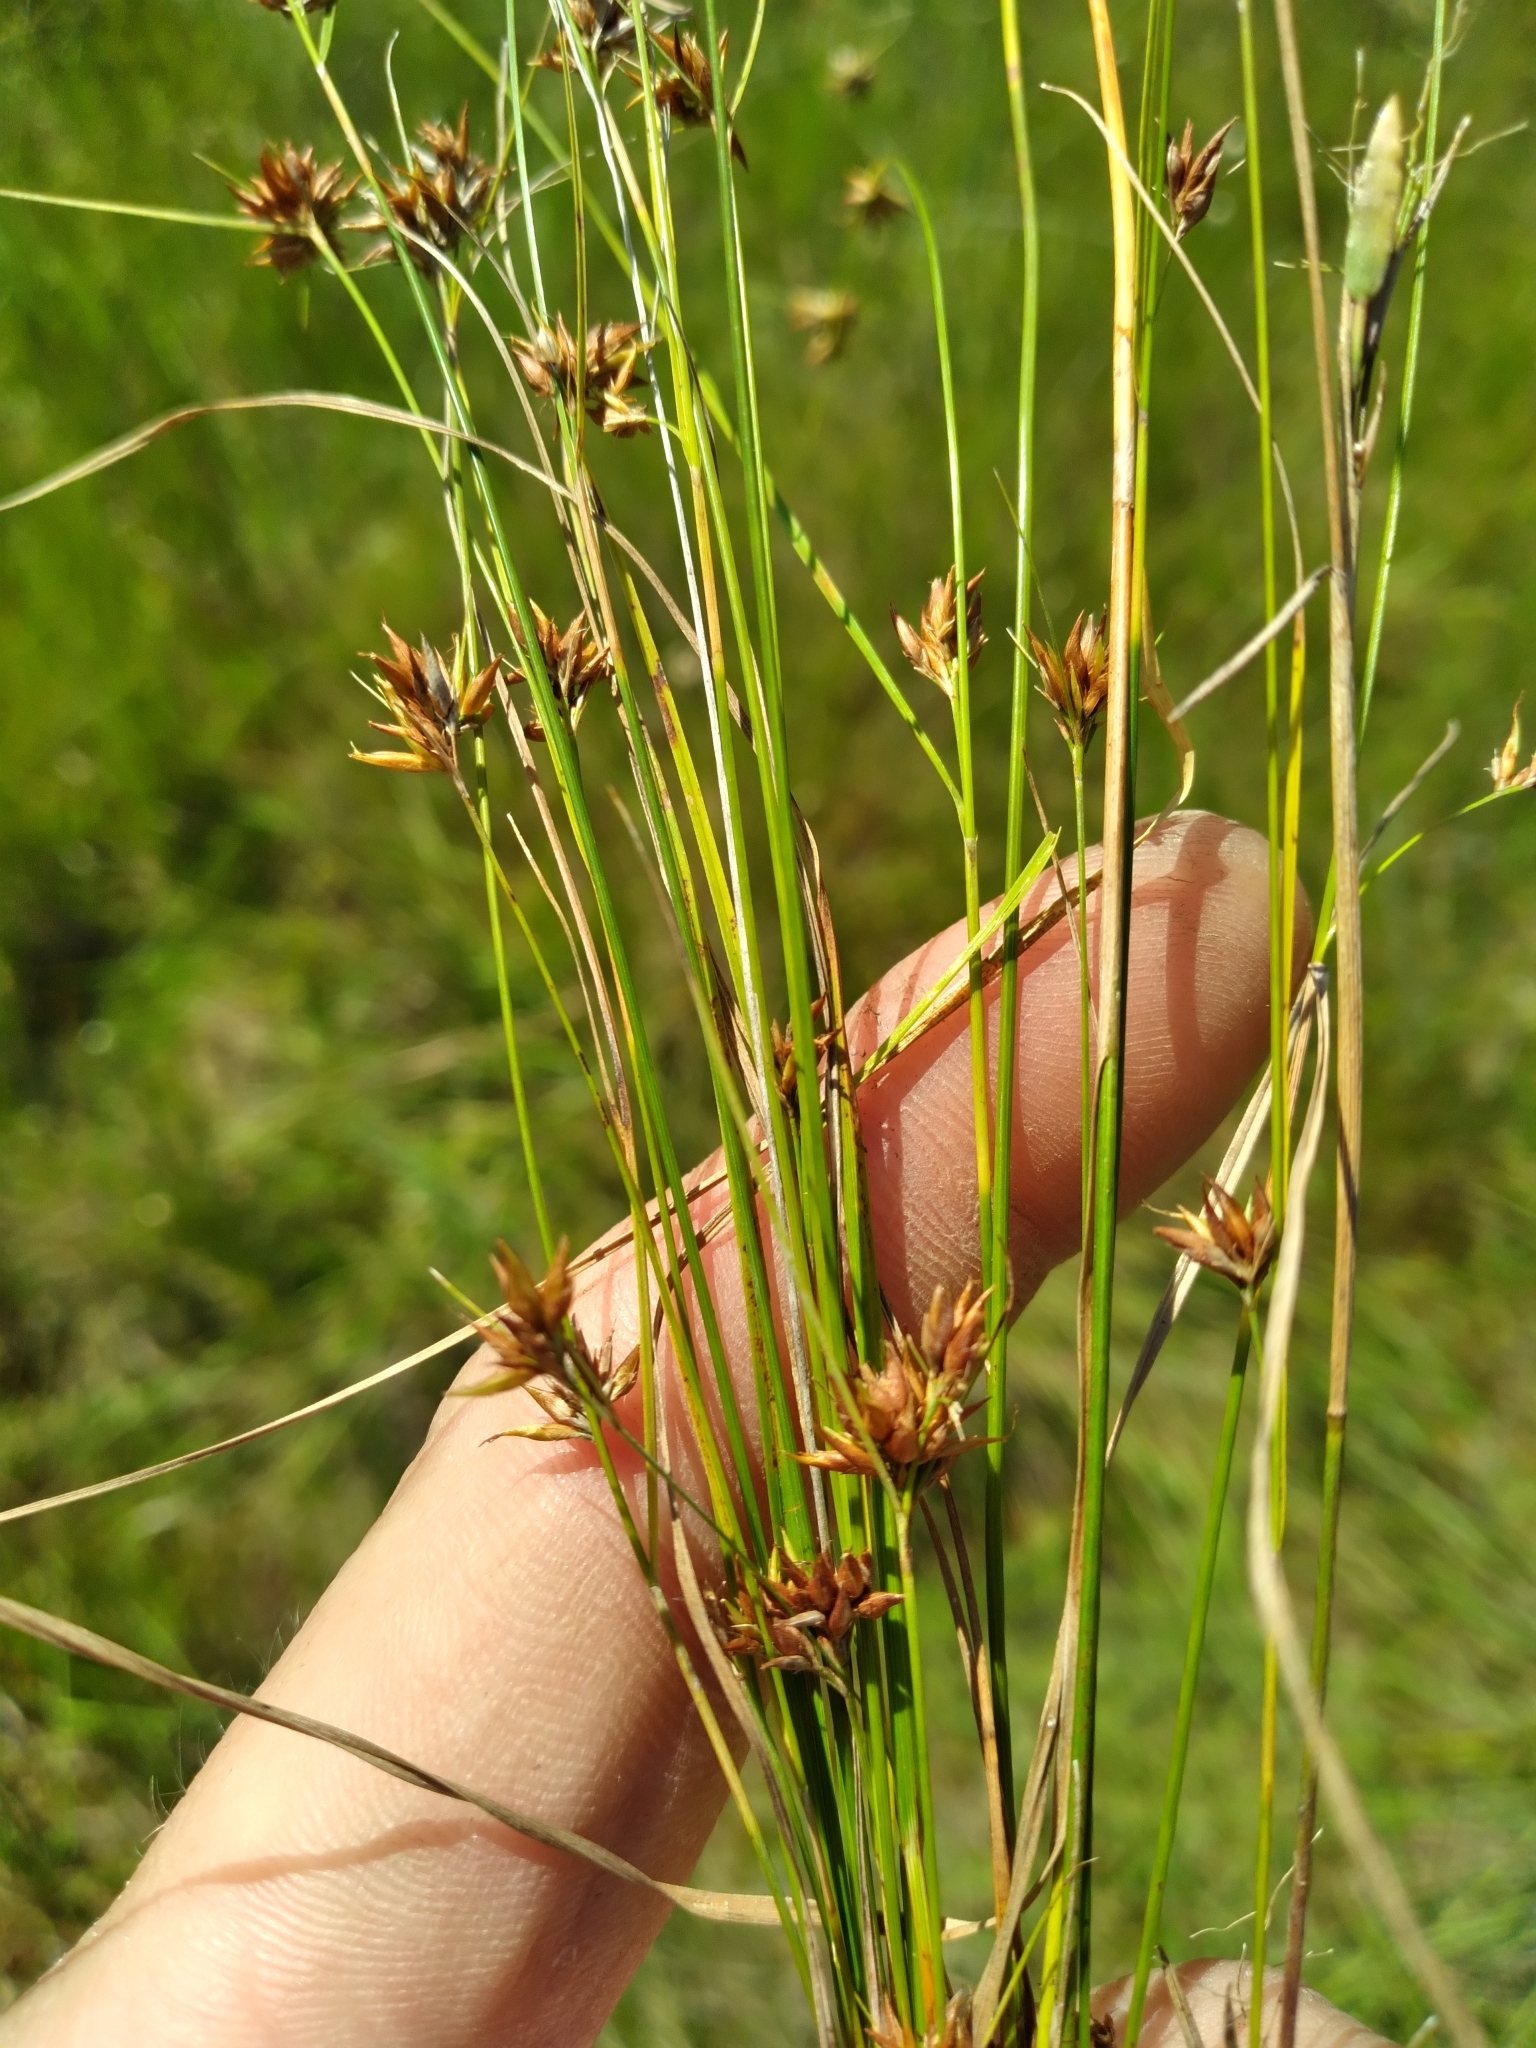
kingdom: Plantae
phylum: Tracheophyta
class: Liliopsida
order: Poales
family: Cyperaceae
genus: Rhynchospora
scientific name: Rhynchospora gracilenta
